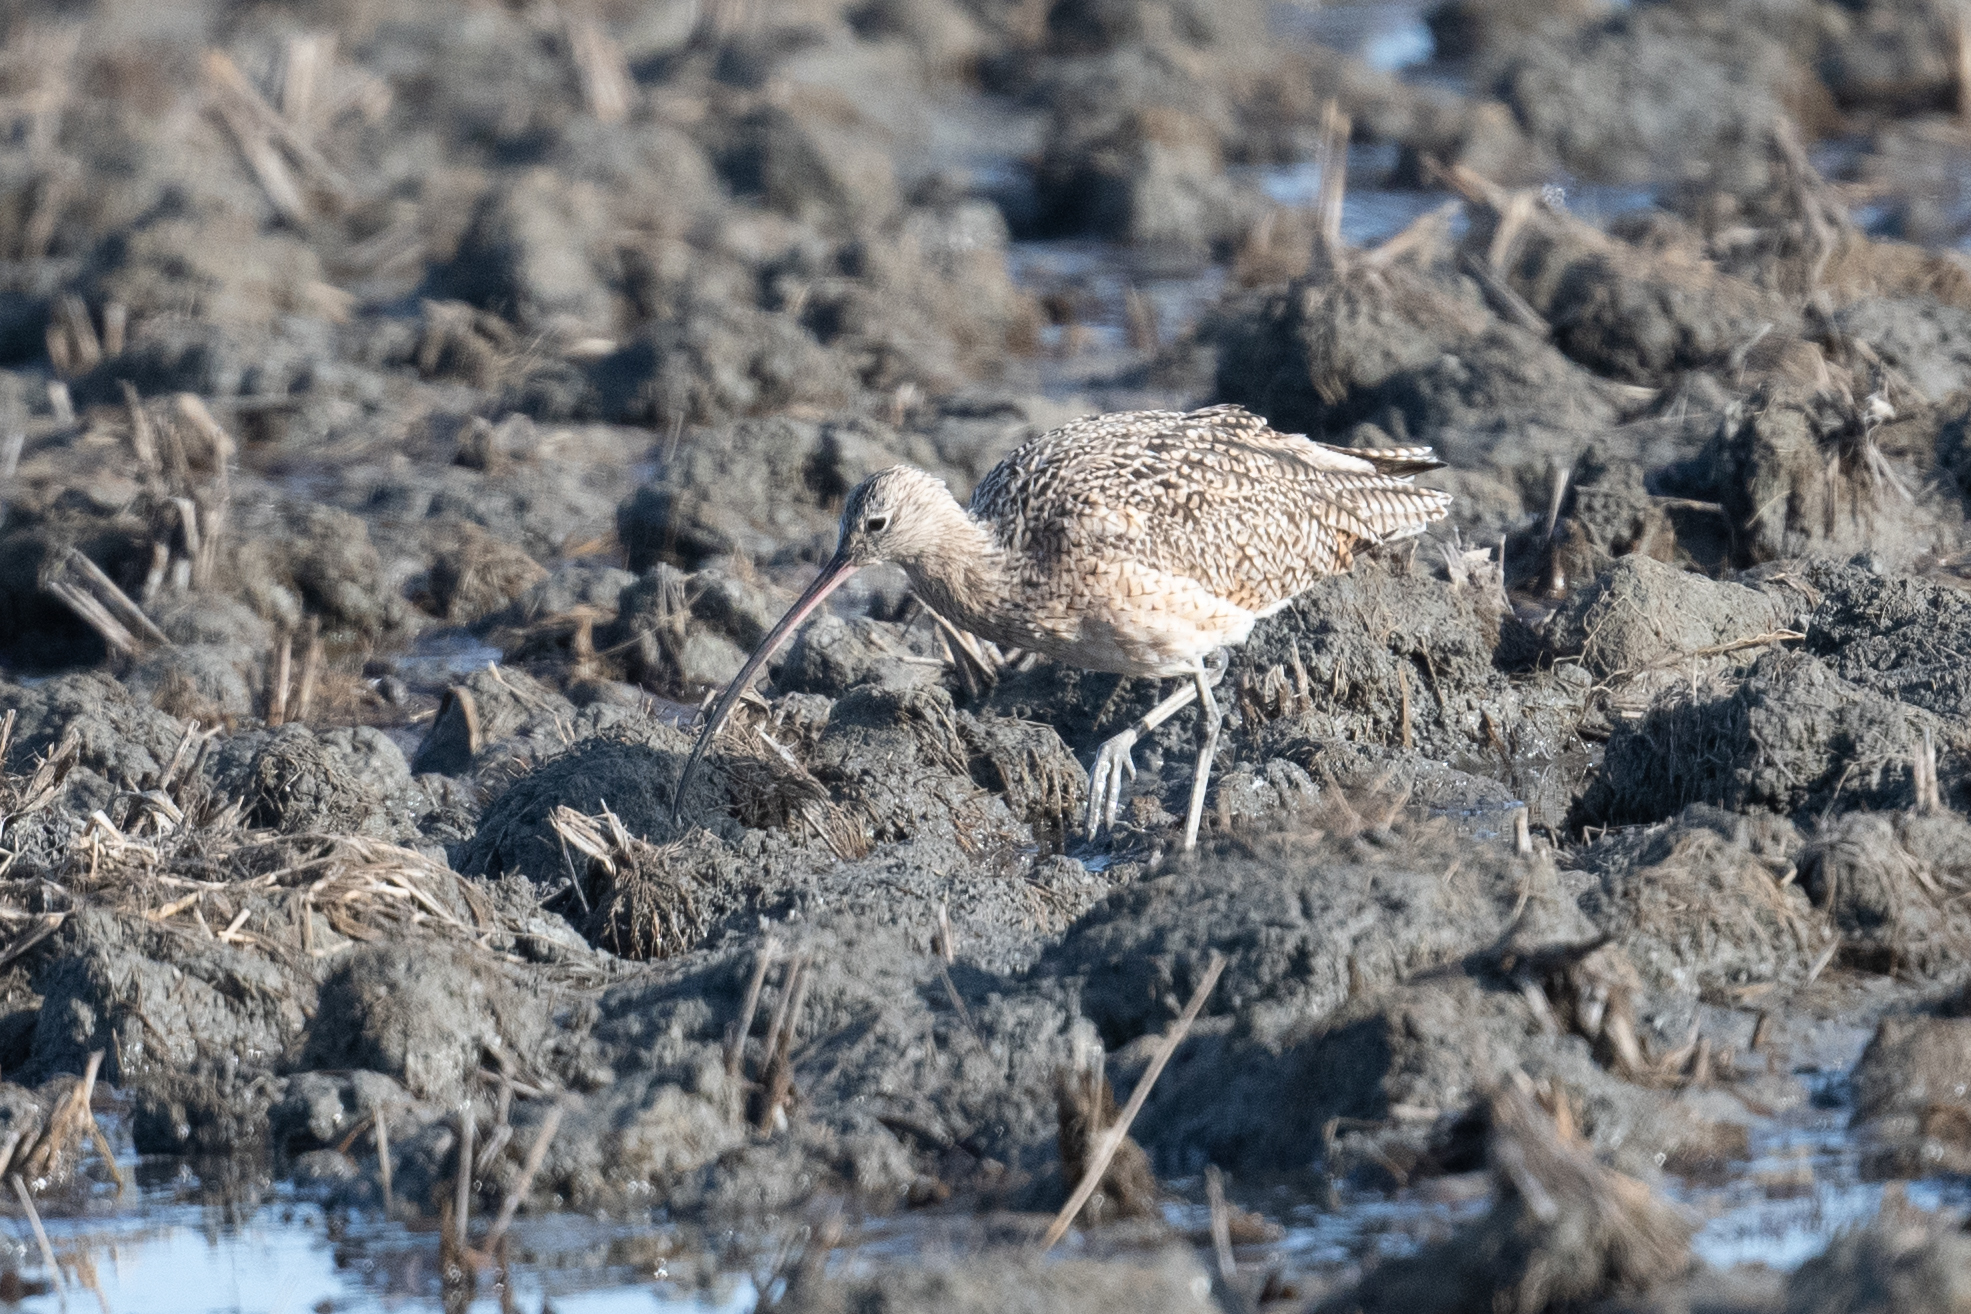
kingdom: Animalia
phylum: Chordata
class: Aves
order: Charadriiformes
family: Scolopacidae
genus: Numenius
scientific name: Numenius americanus
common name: Long-billed curlew
